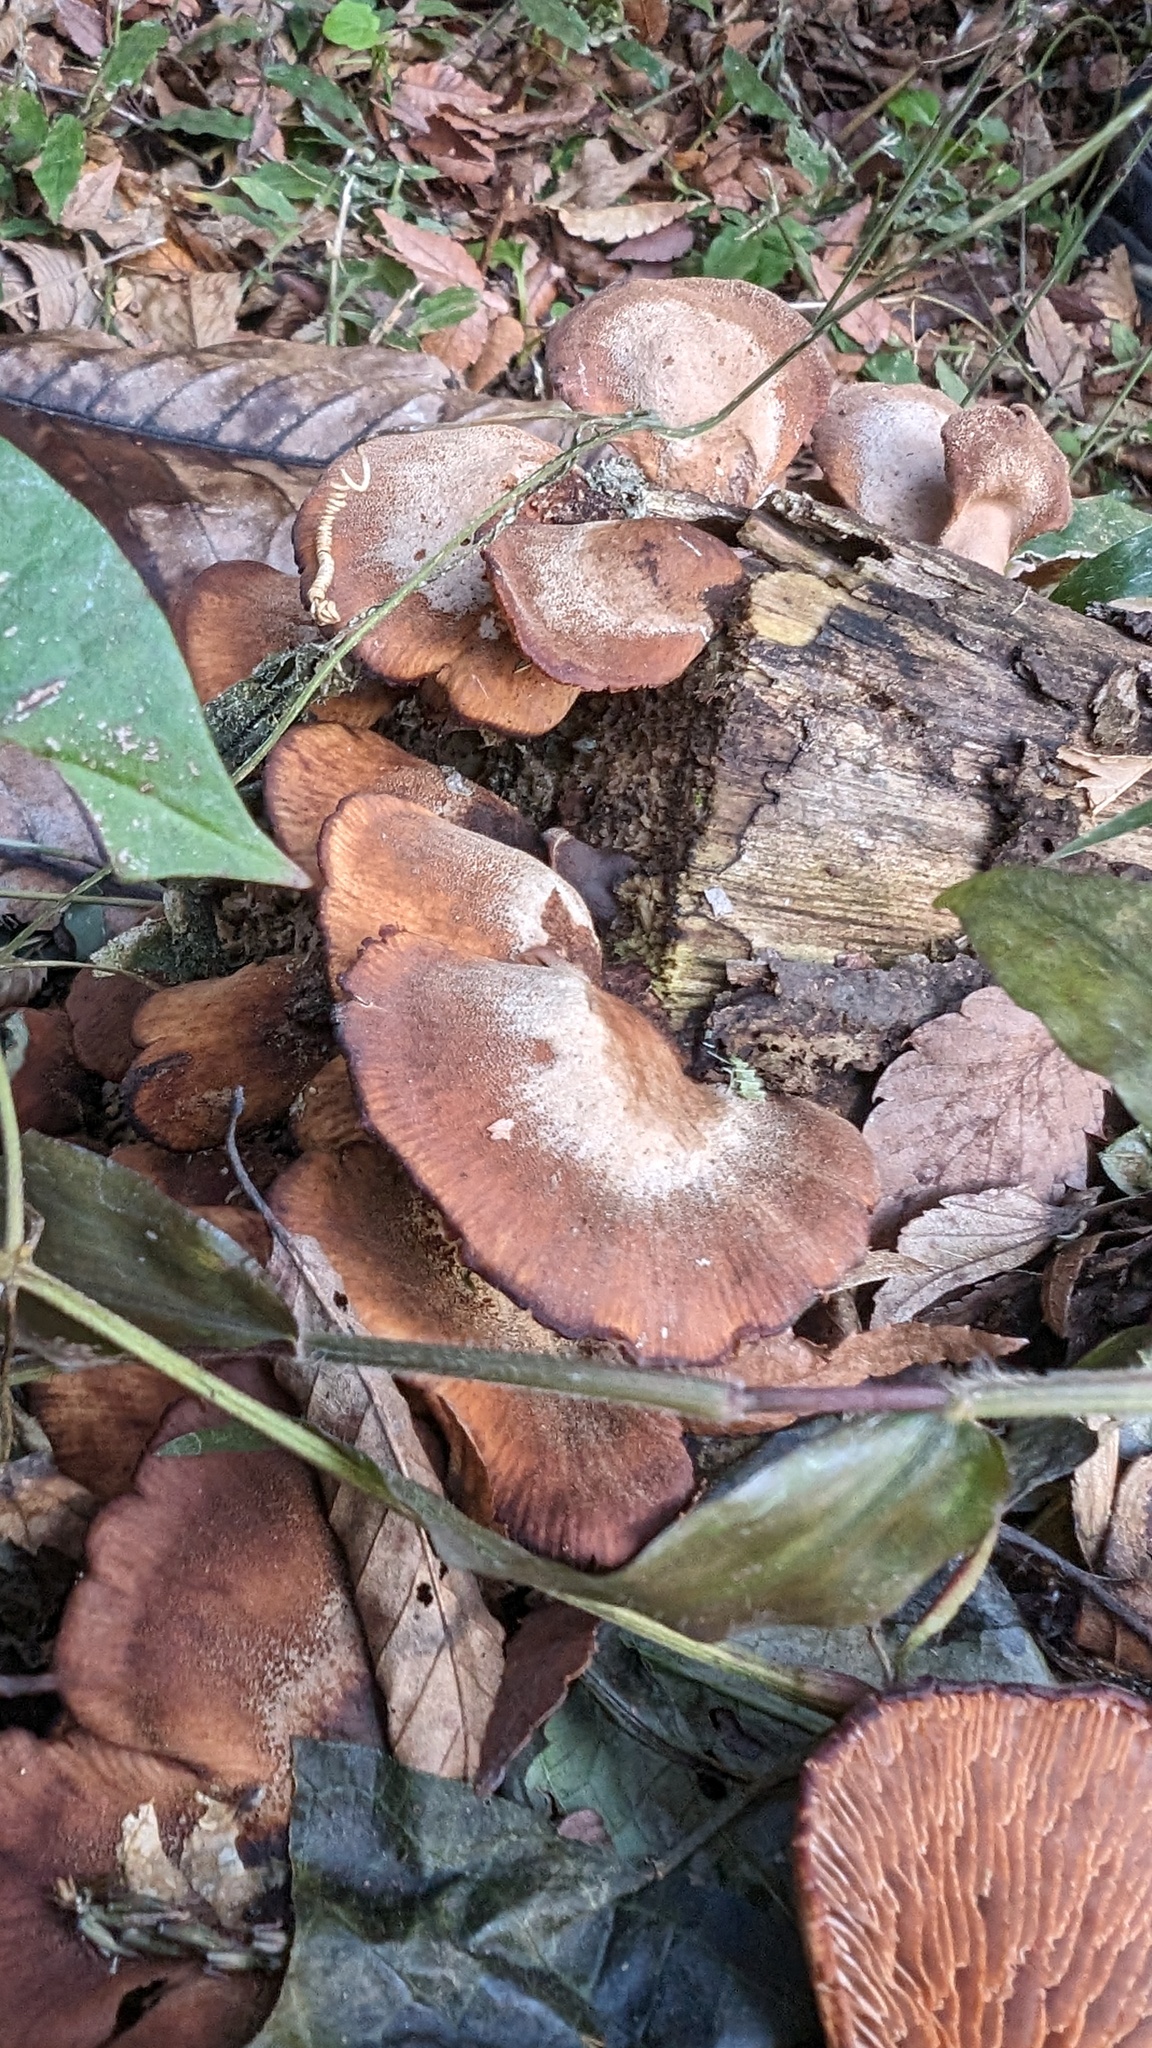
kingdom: Fungi
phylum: Basidiomycota
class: Agaricomycetes
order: Russulales
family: Auriscalpiaceae
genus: Lentinellus
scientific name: Lentinellus ursinus
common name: Bear lentinus
